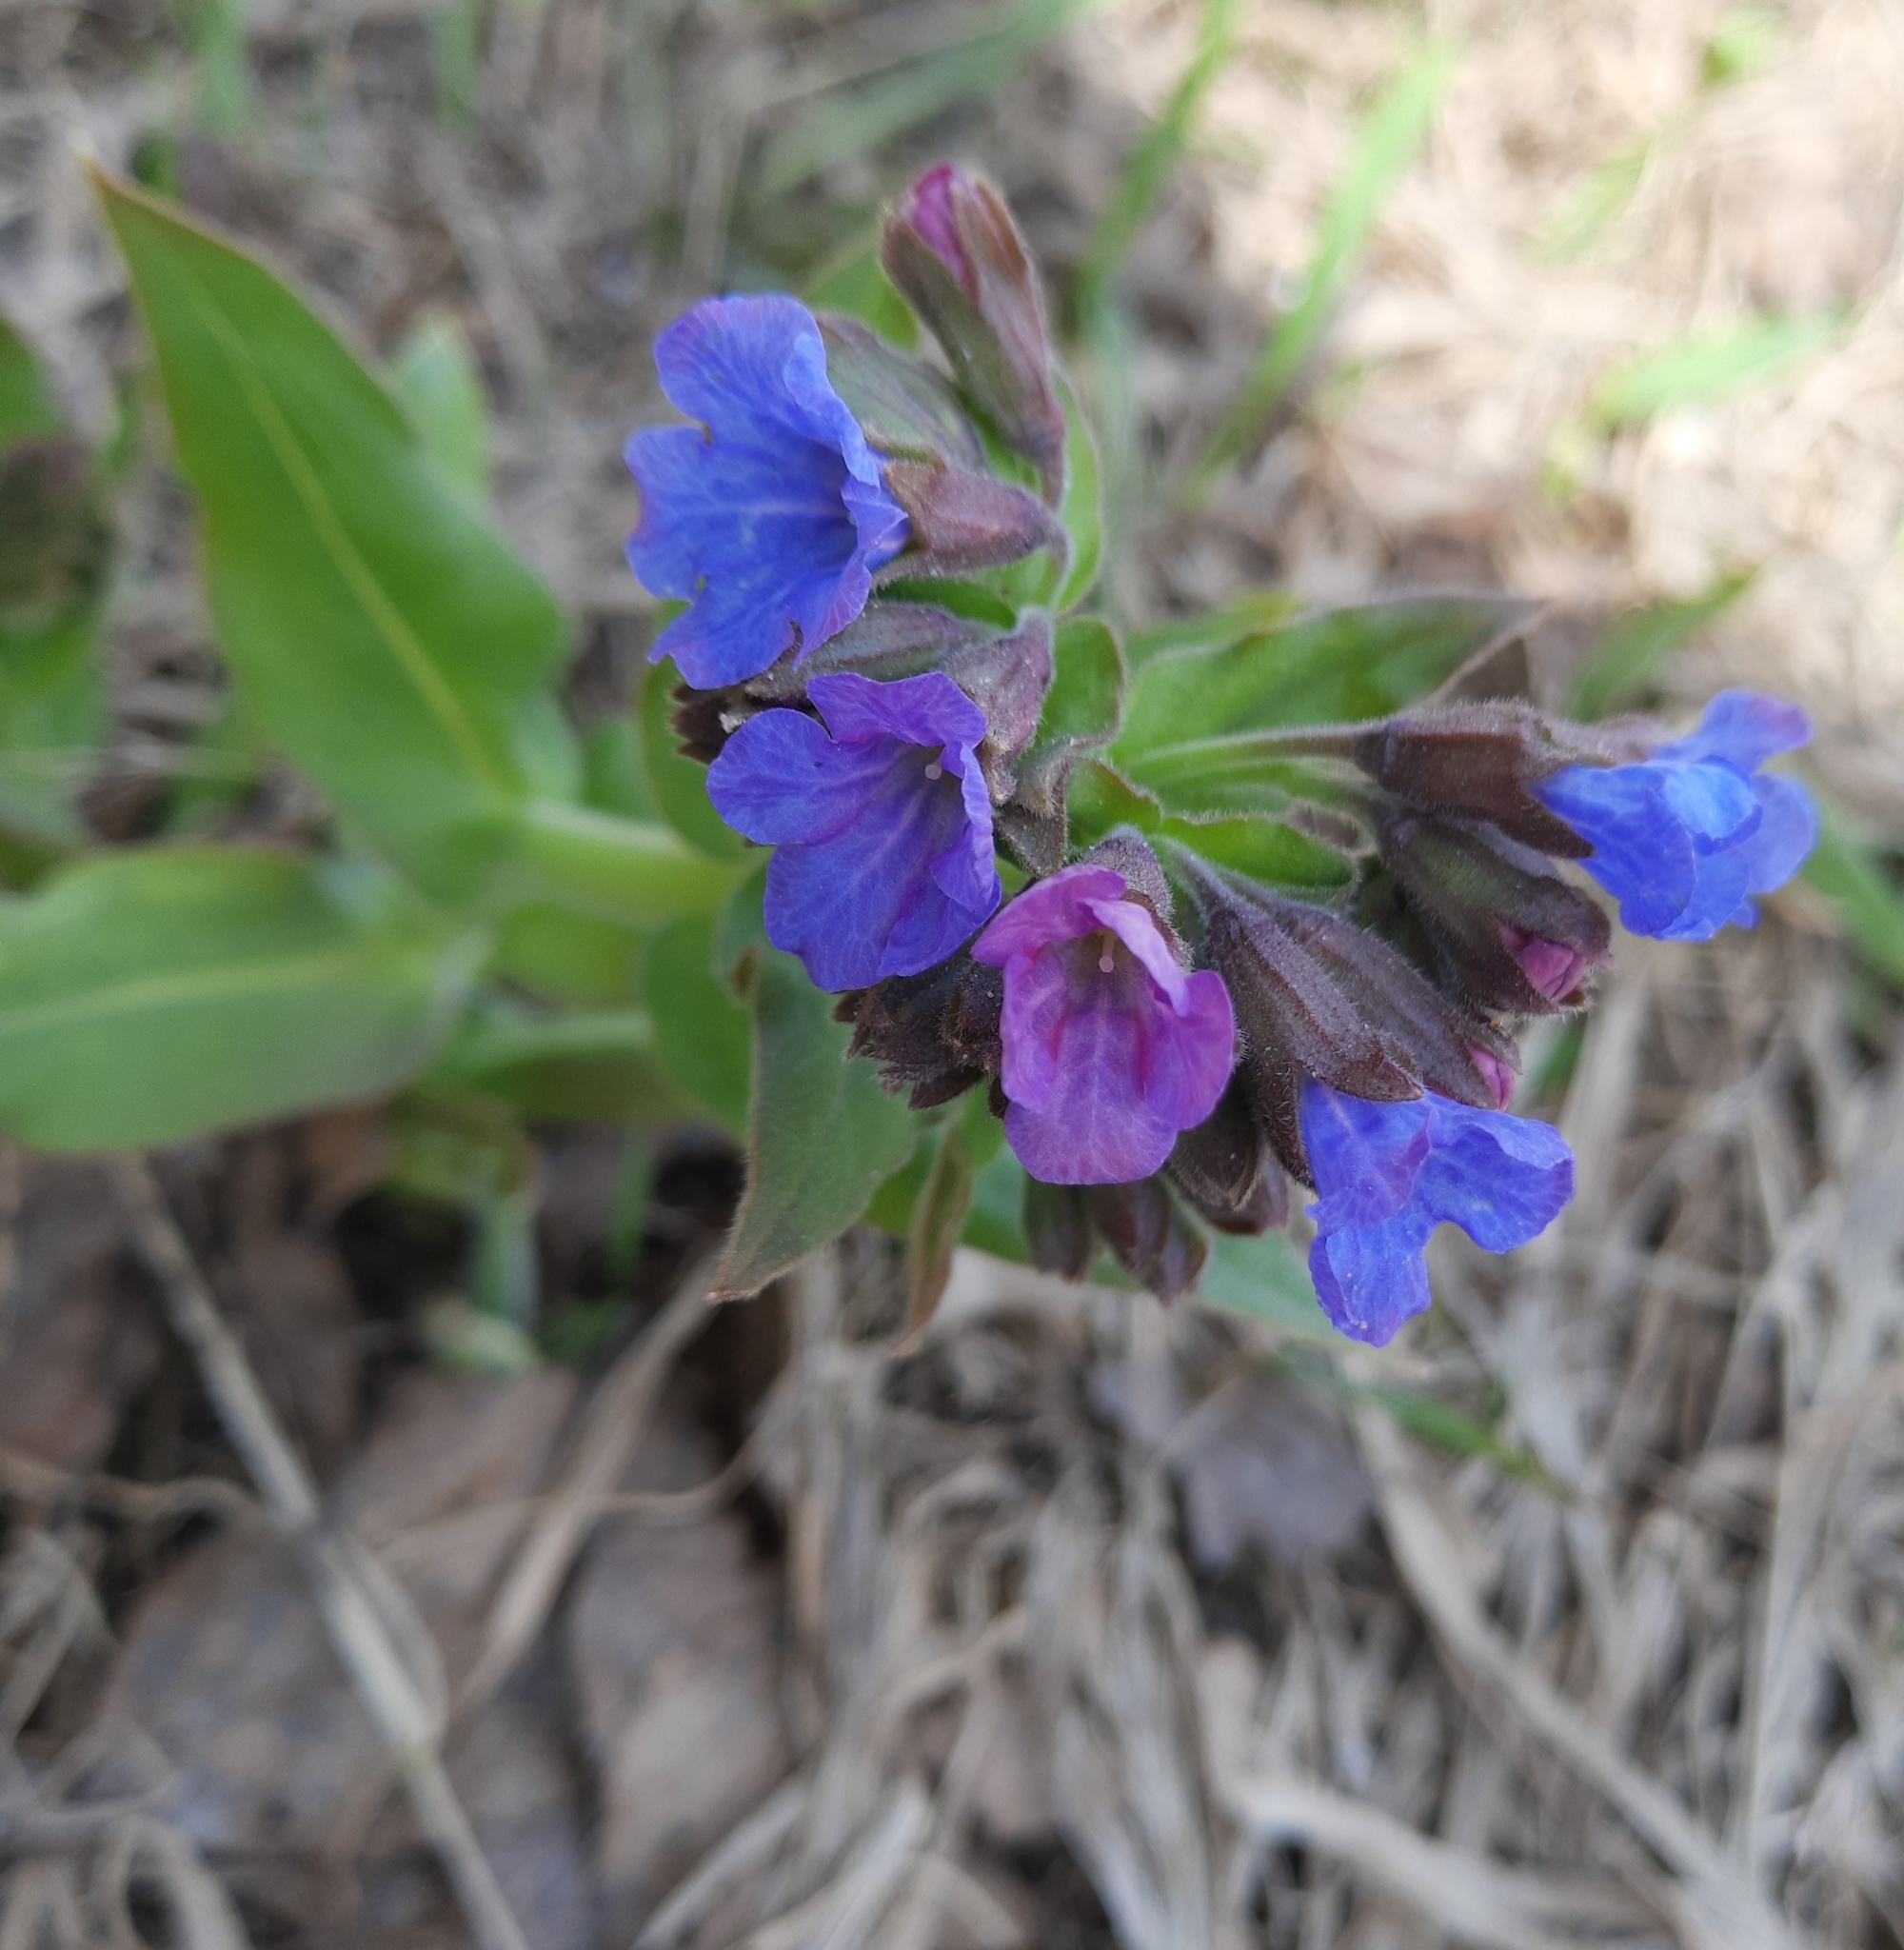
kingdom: Plantae
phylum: Tracheophyta
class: Magnoliopsida
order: Boraginales
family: Boraginaceae
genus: Pulmonaria
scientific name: Pulmonaria mollis
